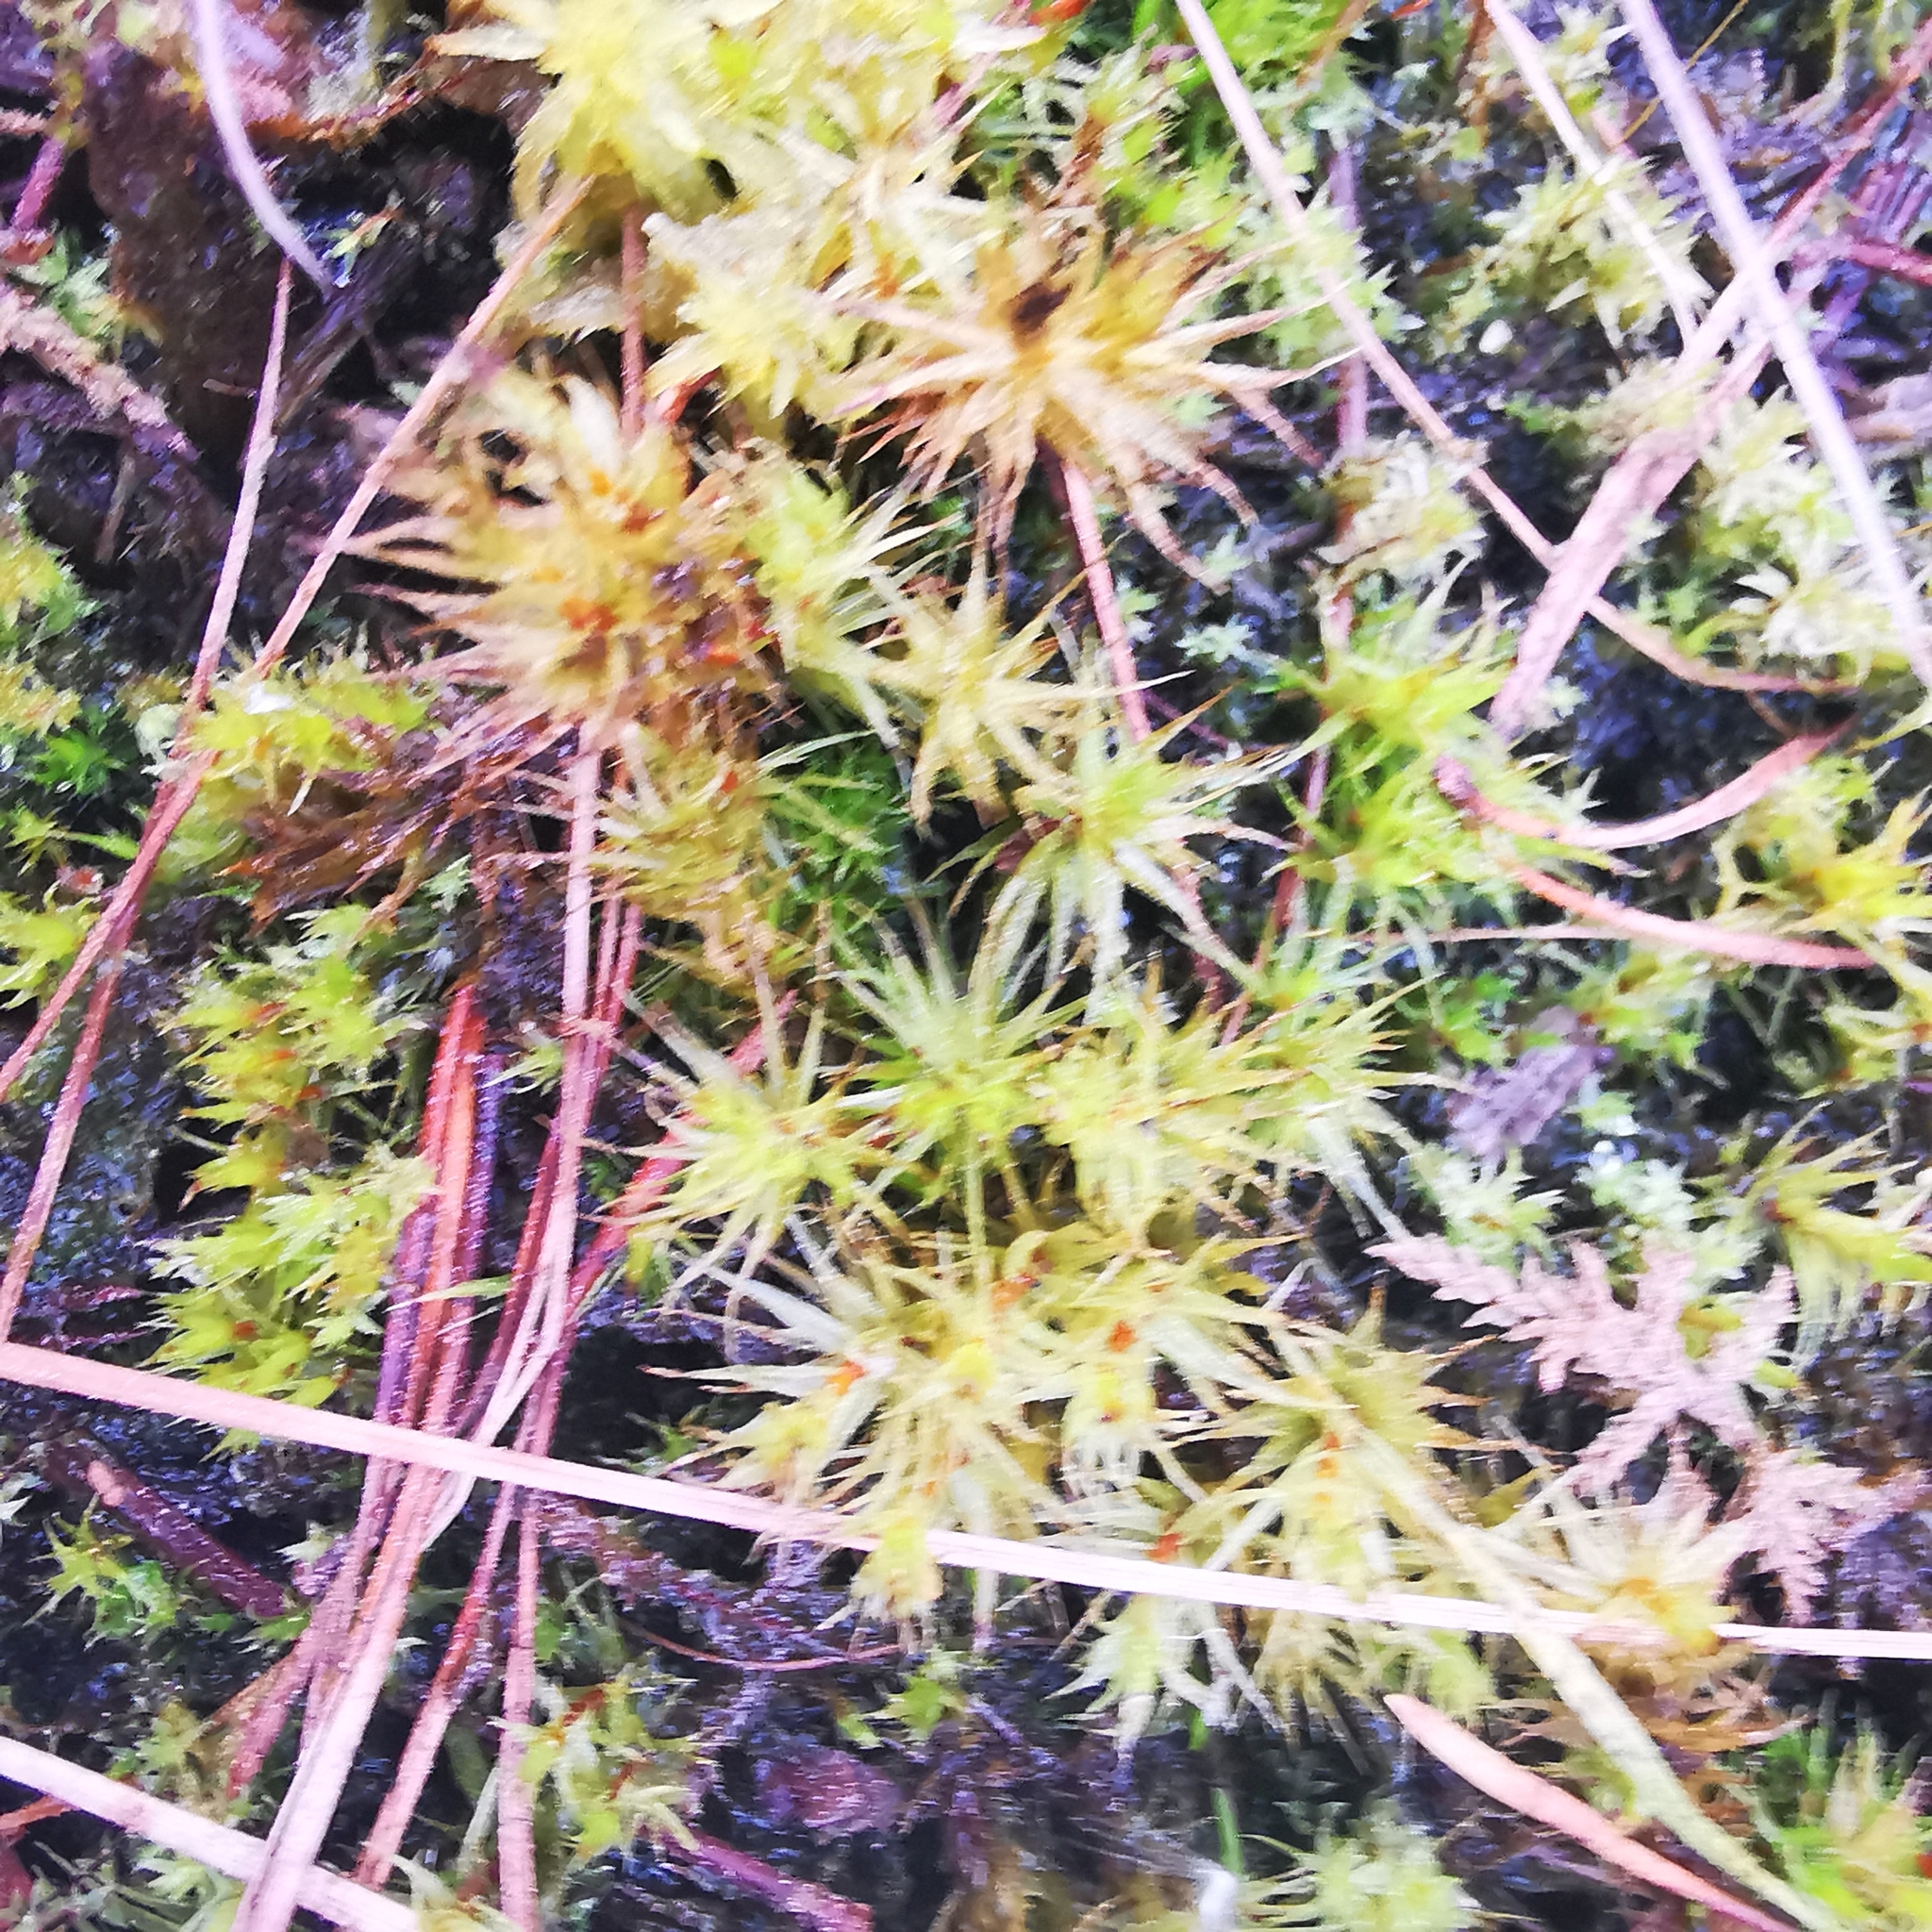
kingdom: Plantae
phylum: Bryophyta
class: Bryopsida
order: Dicranales
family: Dicranaceae
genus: Dicranum
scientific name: Dicranum polysetum
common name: Rugose fork-moss
